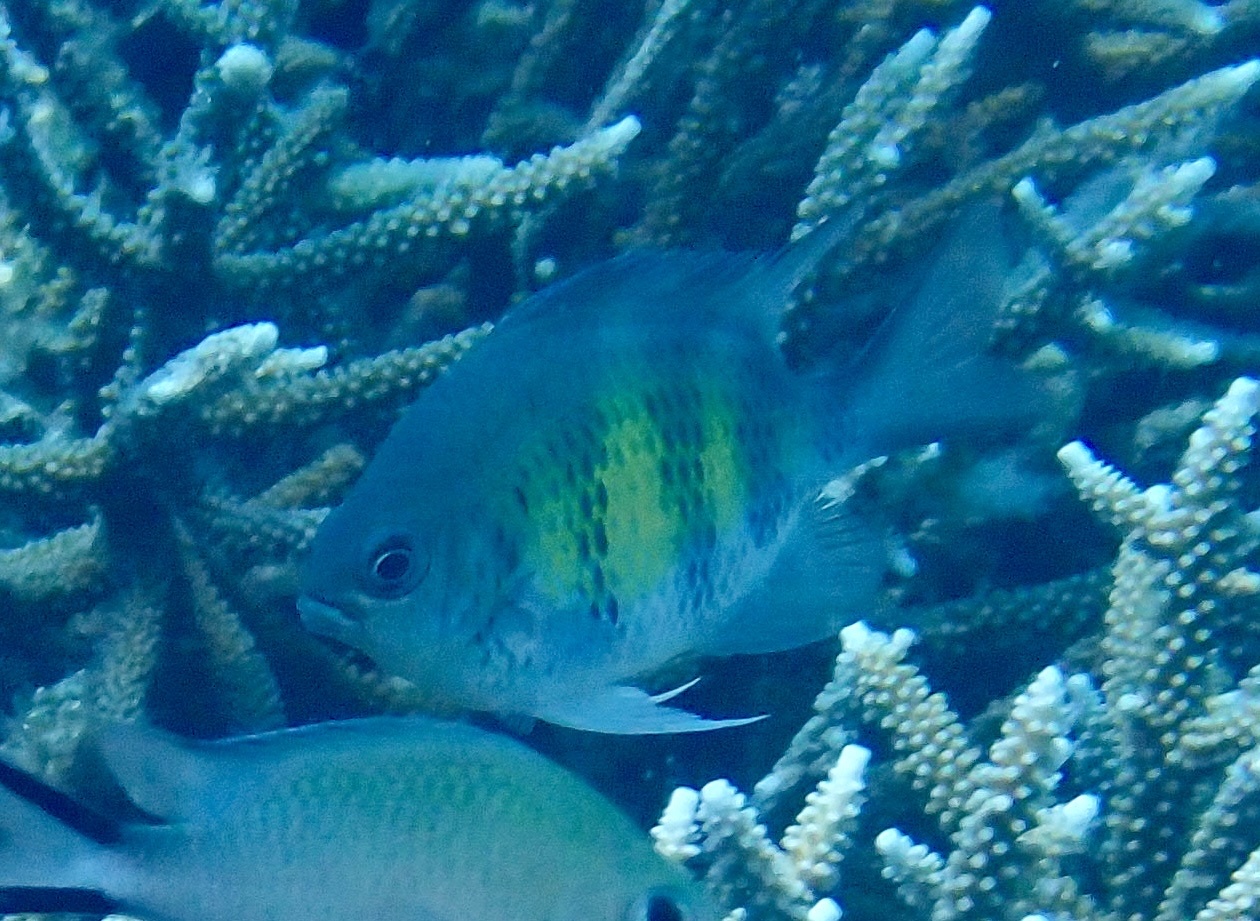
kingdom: Animalia
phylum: Chordata
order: Perciformes
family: Pomacentridae
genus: Amblyglyphidodon
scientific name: Amblyglyphidodon curacao
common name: Staghorn damsel
